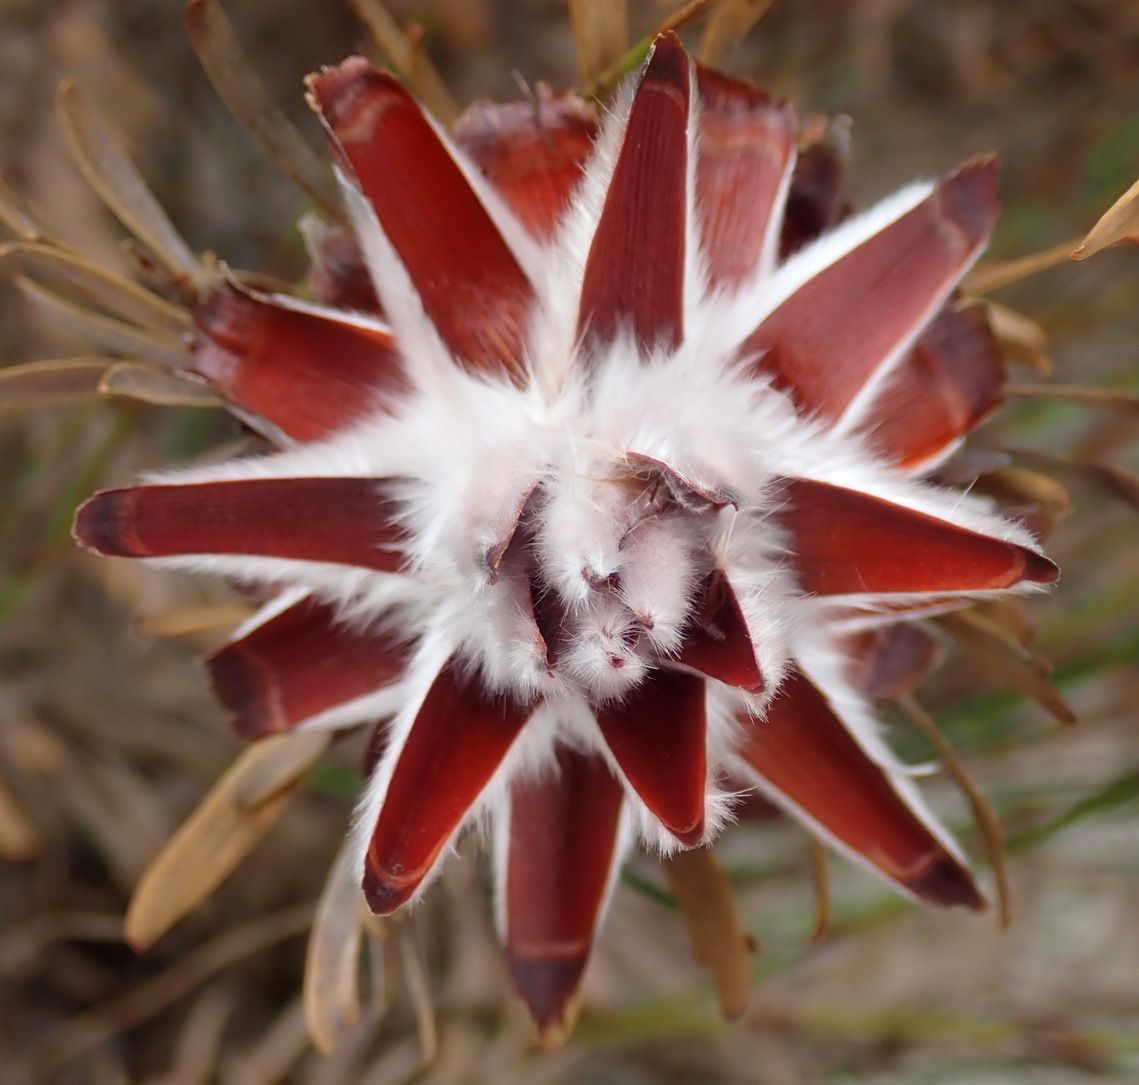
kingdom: Plantae
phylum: Tracheophyta
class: Magnoliopsida
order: Proteales
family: Proteaceae
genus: Leucadendron
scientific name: Leucadendron rubrum
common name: Spinning top
